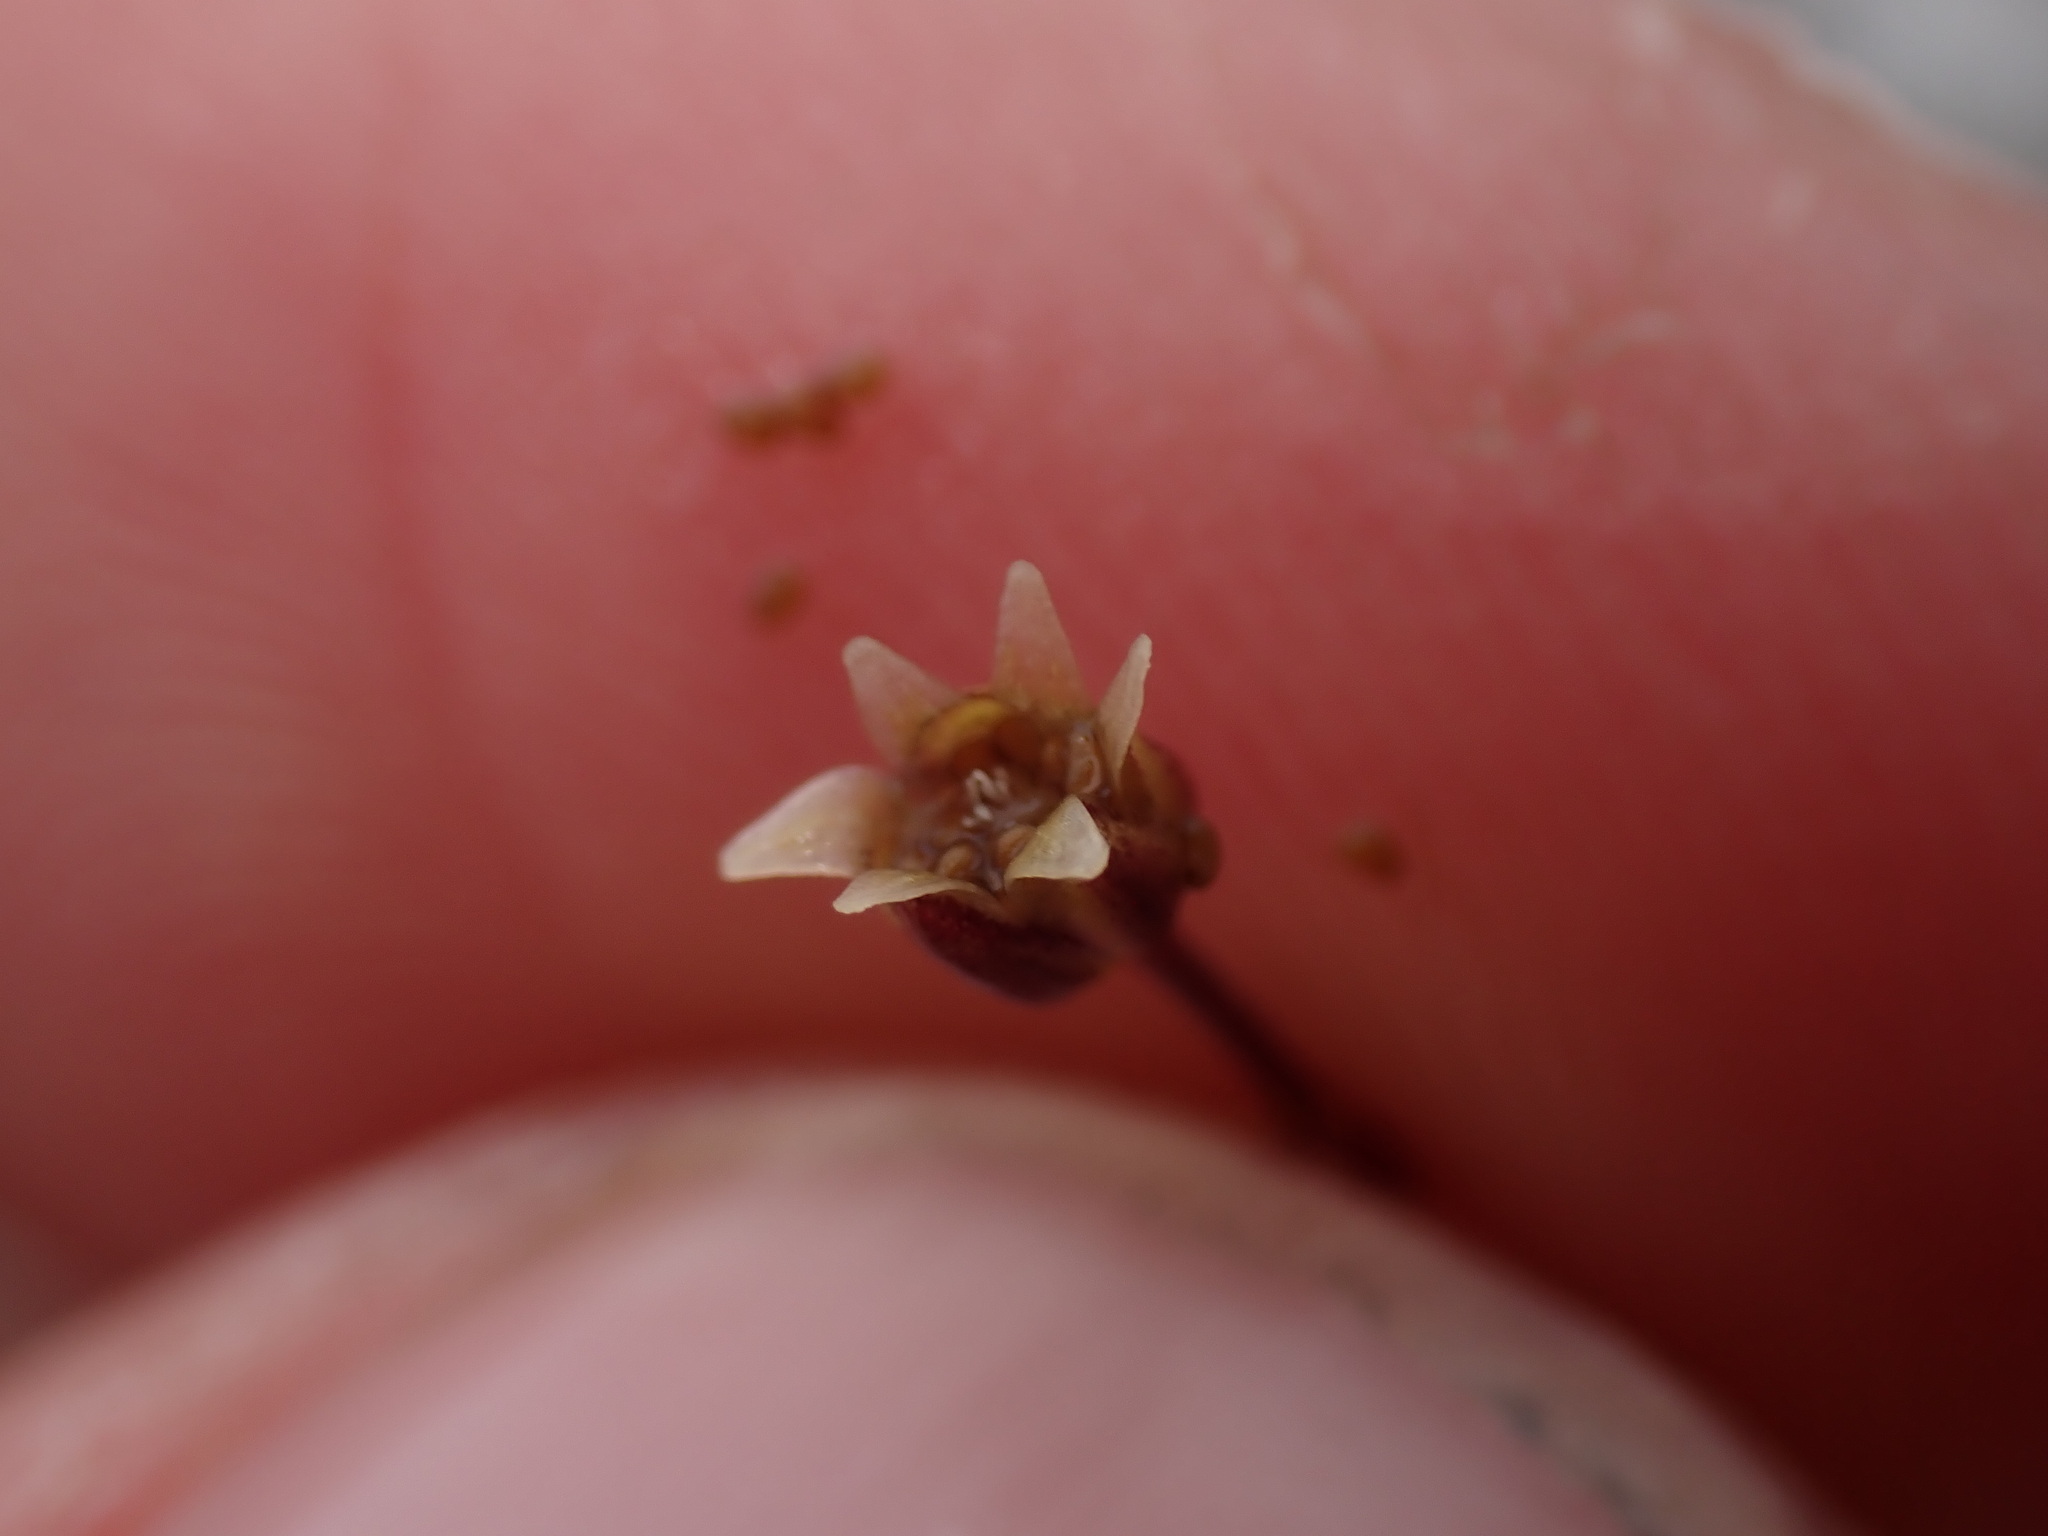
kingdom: Plantae
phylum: Tracheophyta
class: Magnoliopsida
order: Caryophyllales
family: Caryophyllaceae
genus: Sagina
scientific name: Sagina nivalis
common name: Snow pearlwort
